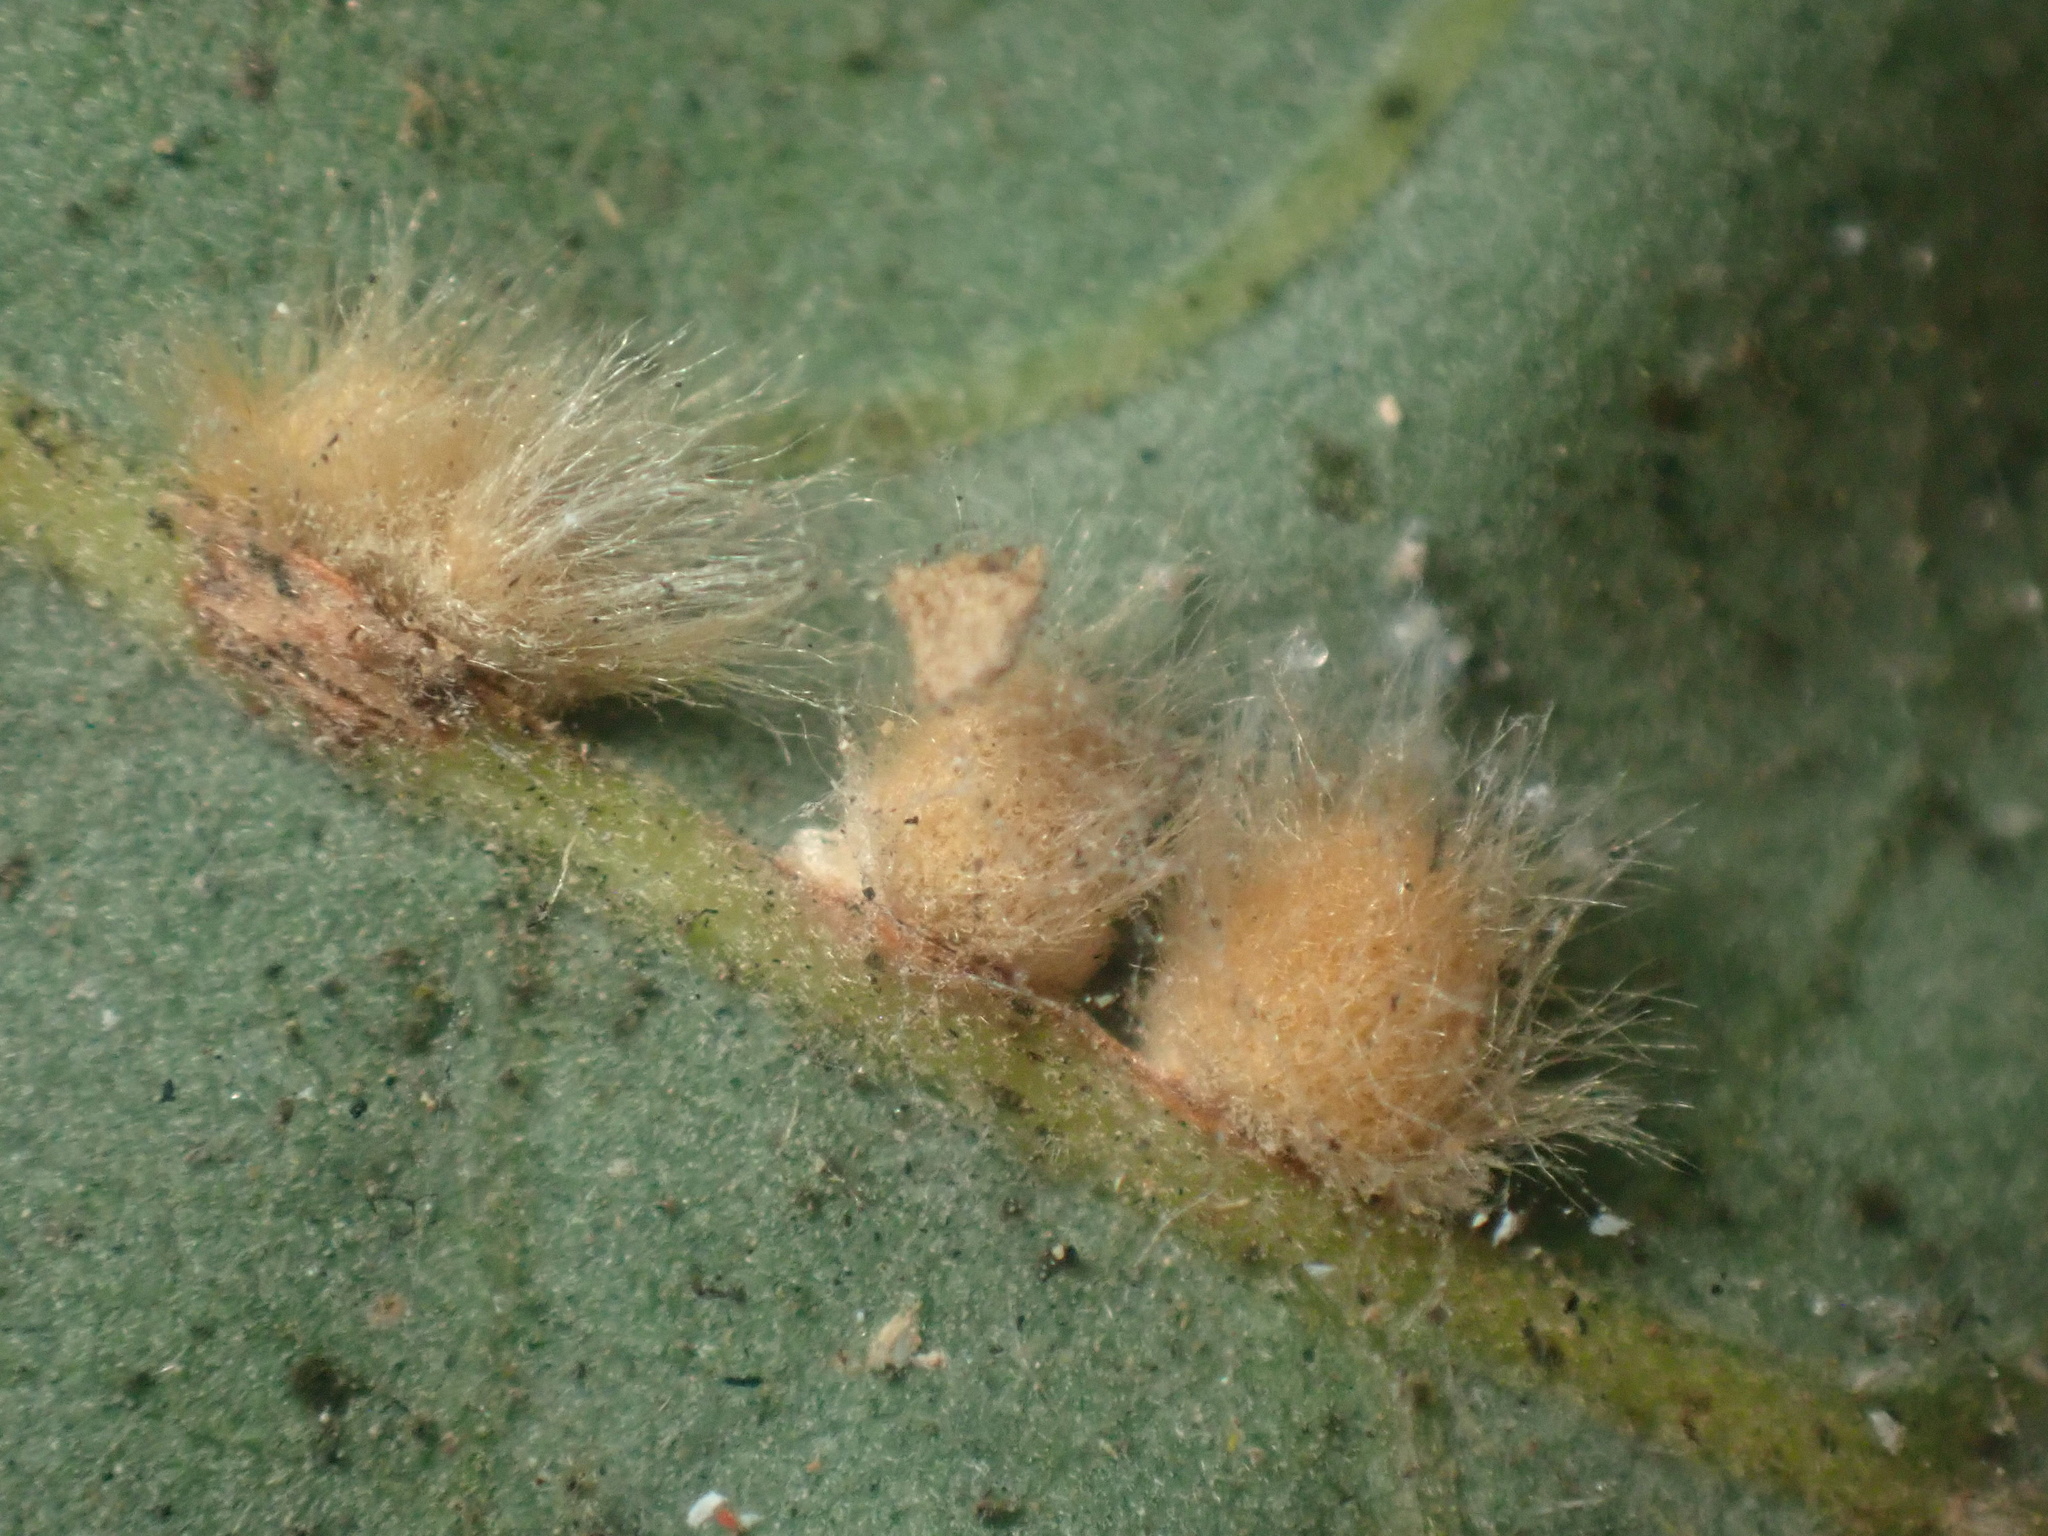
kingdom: Animalia
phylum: Arthropoda
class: Insecta
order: Hymenoptera
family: Cynipidae
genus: Andricus
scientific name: Andricus
